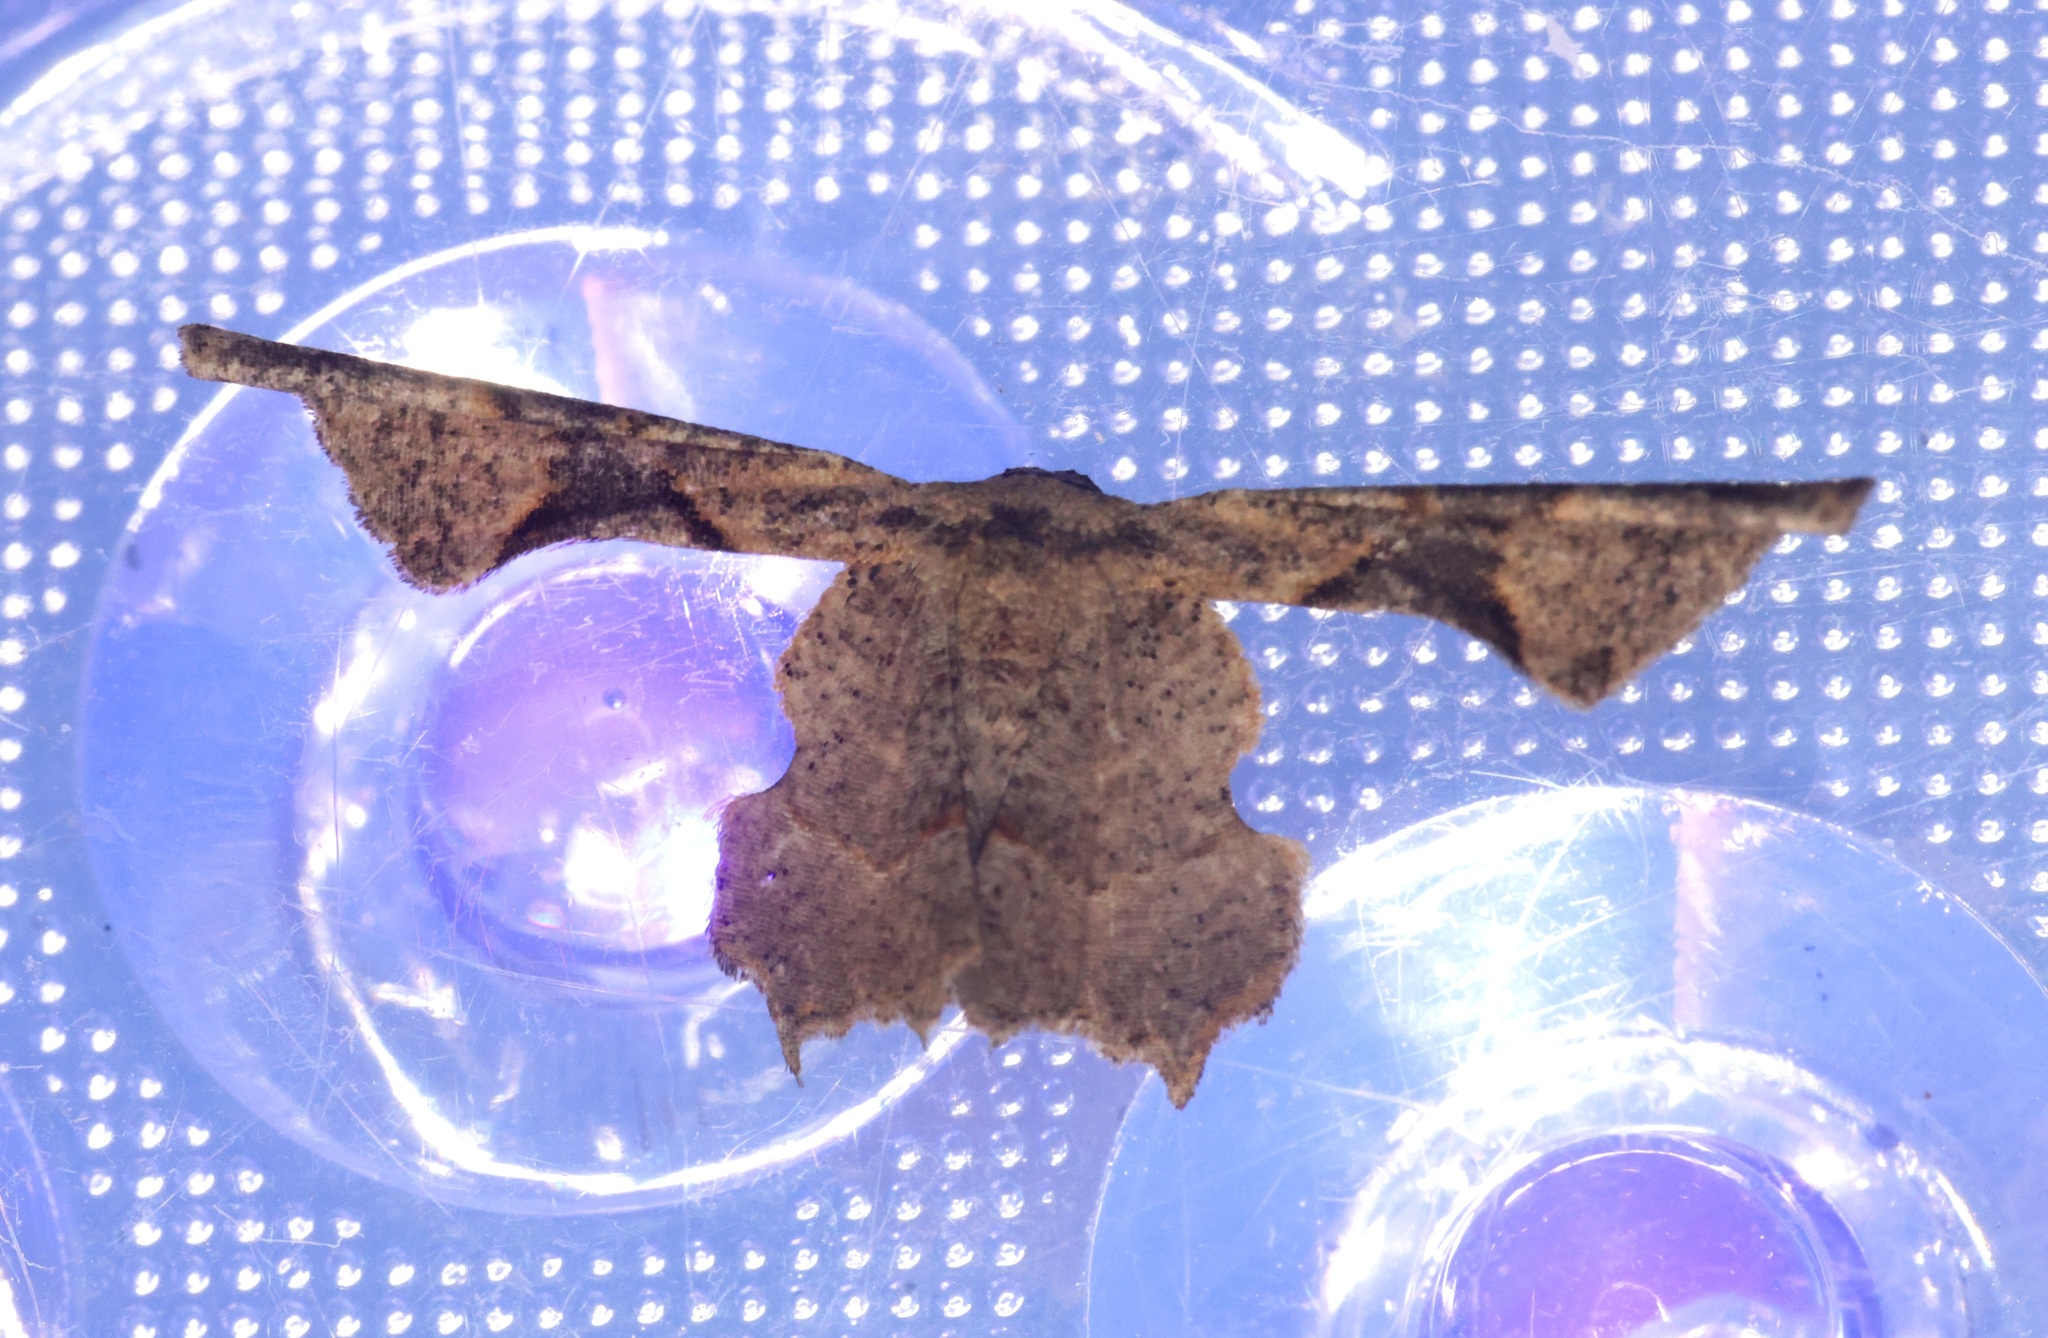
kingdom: Animalia
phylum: Arthropoda
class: Insecta
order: Lepidoptera
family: Uraniidae
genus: Monobolodes
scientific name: Monobolodes prunaria
